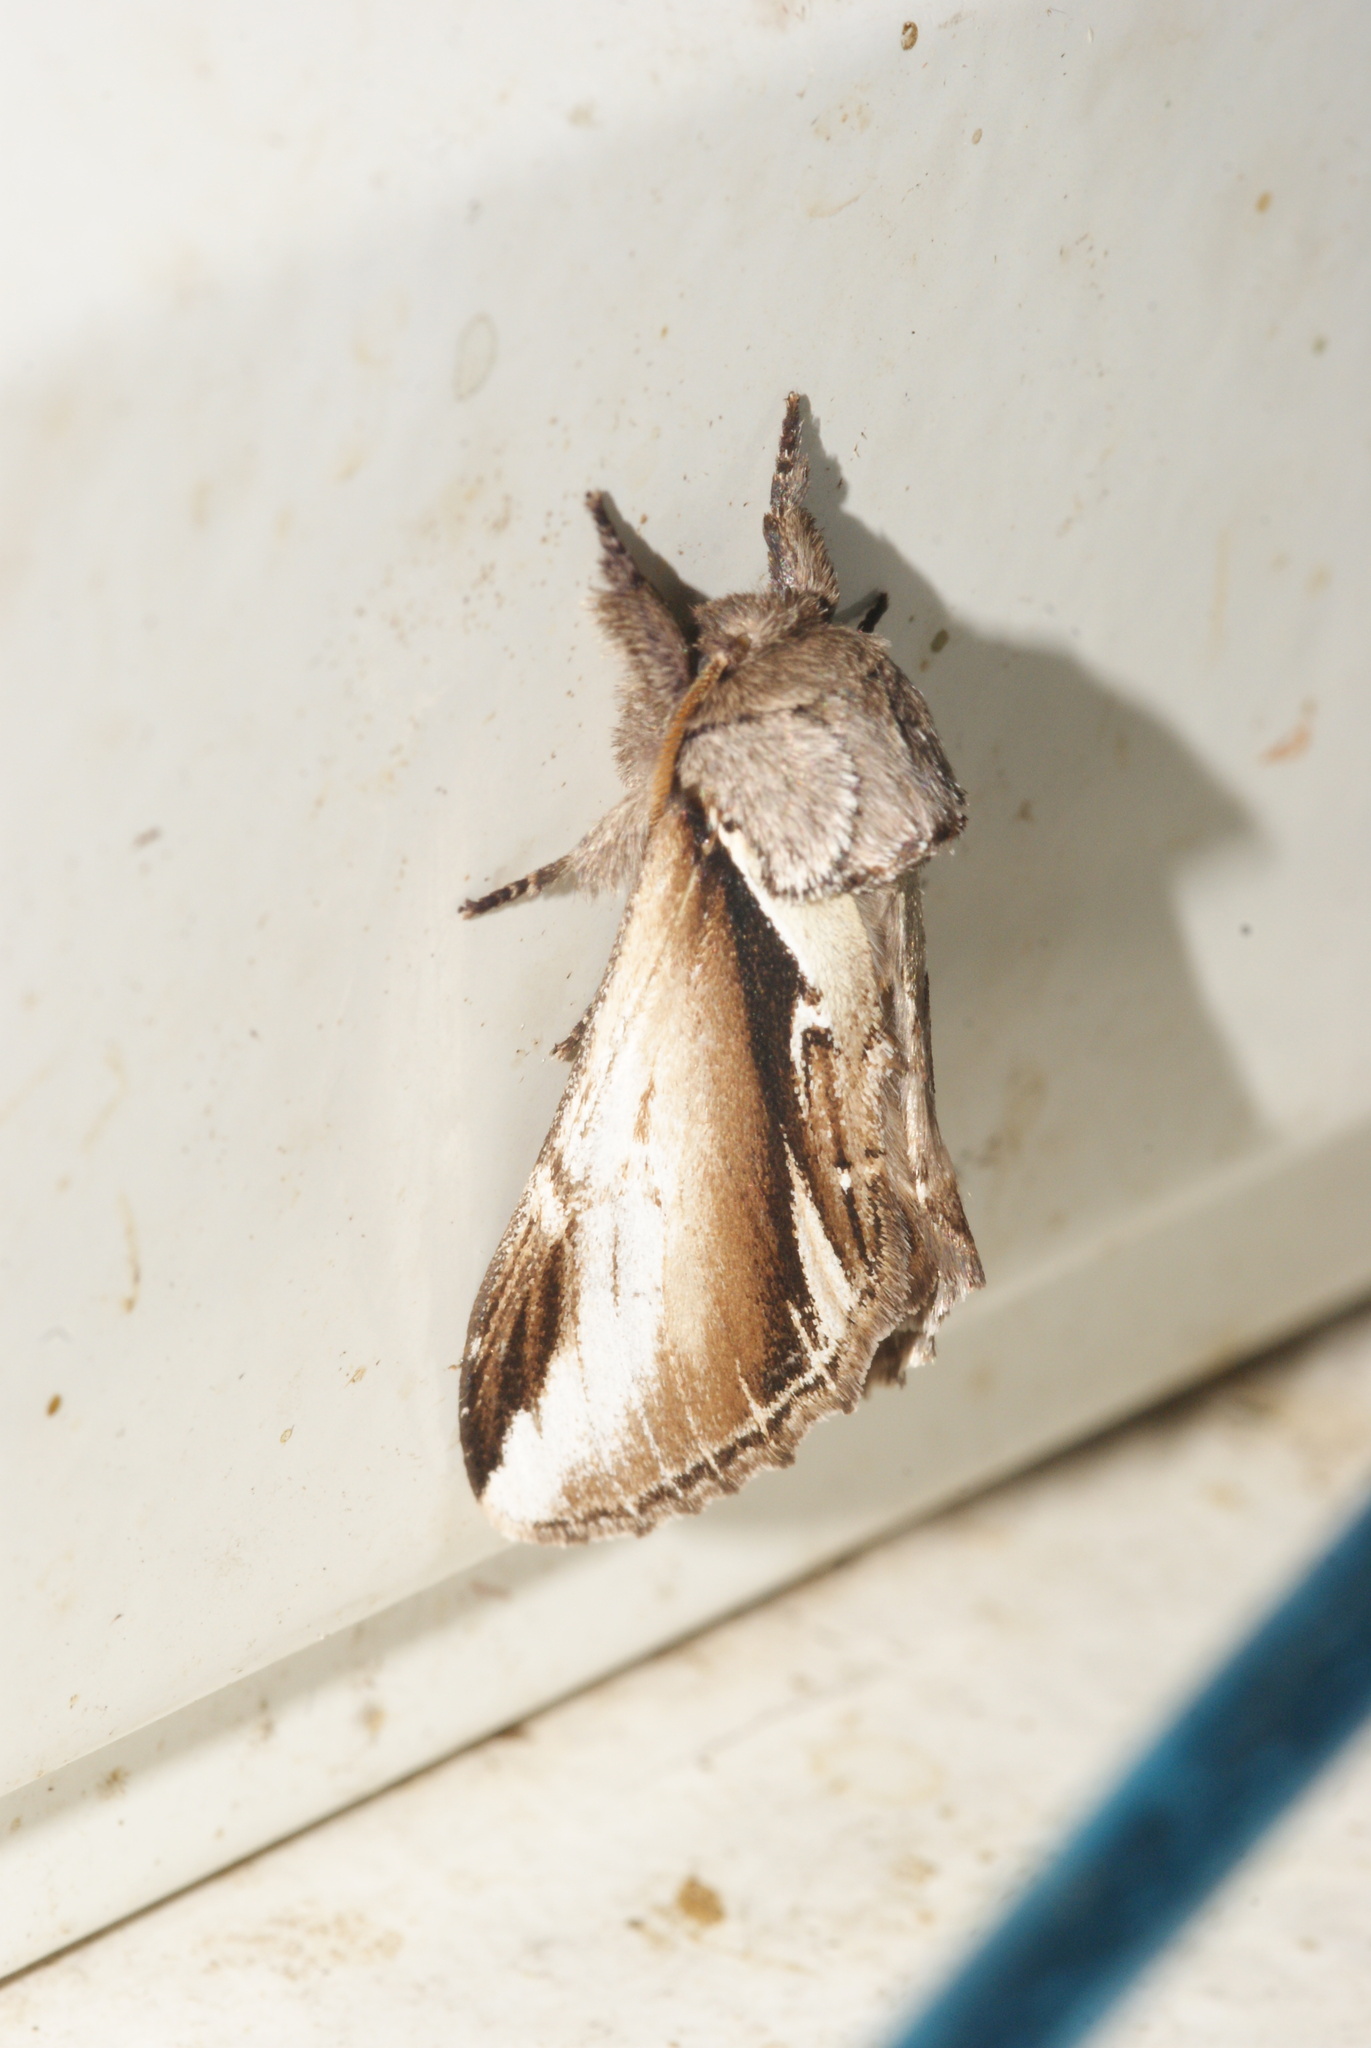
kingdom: Animalia
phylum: Arthropoda
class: Insecta
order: Lepidoptera
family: Notodontidae
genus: Pheosia
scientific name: Pheosia gnoma
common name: Lesser swallow prominent
